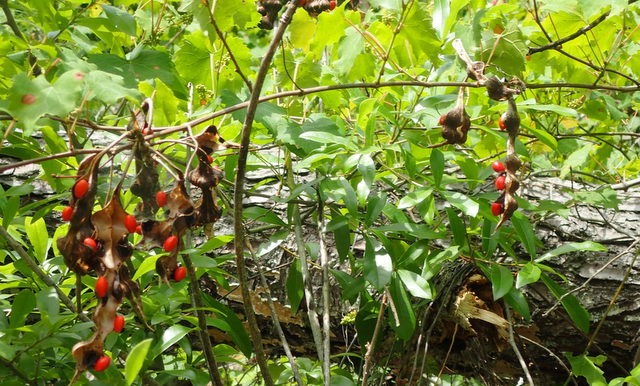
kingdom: Plantae
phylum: Tracheophyta
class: Magnoliopsida
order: Fabales
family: Fabaceae
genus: Erythrina
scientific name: Erythrina herbacea
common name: Coral-bean
